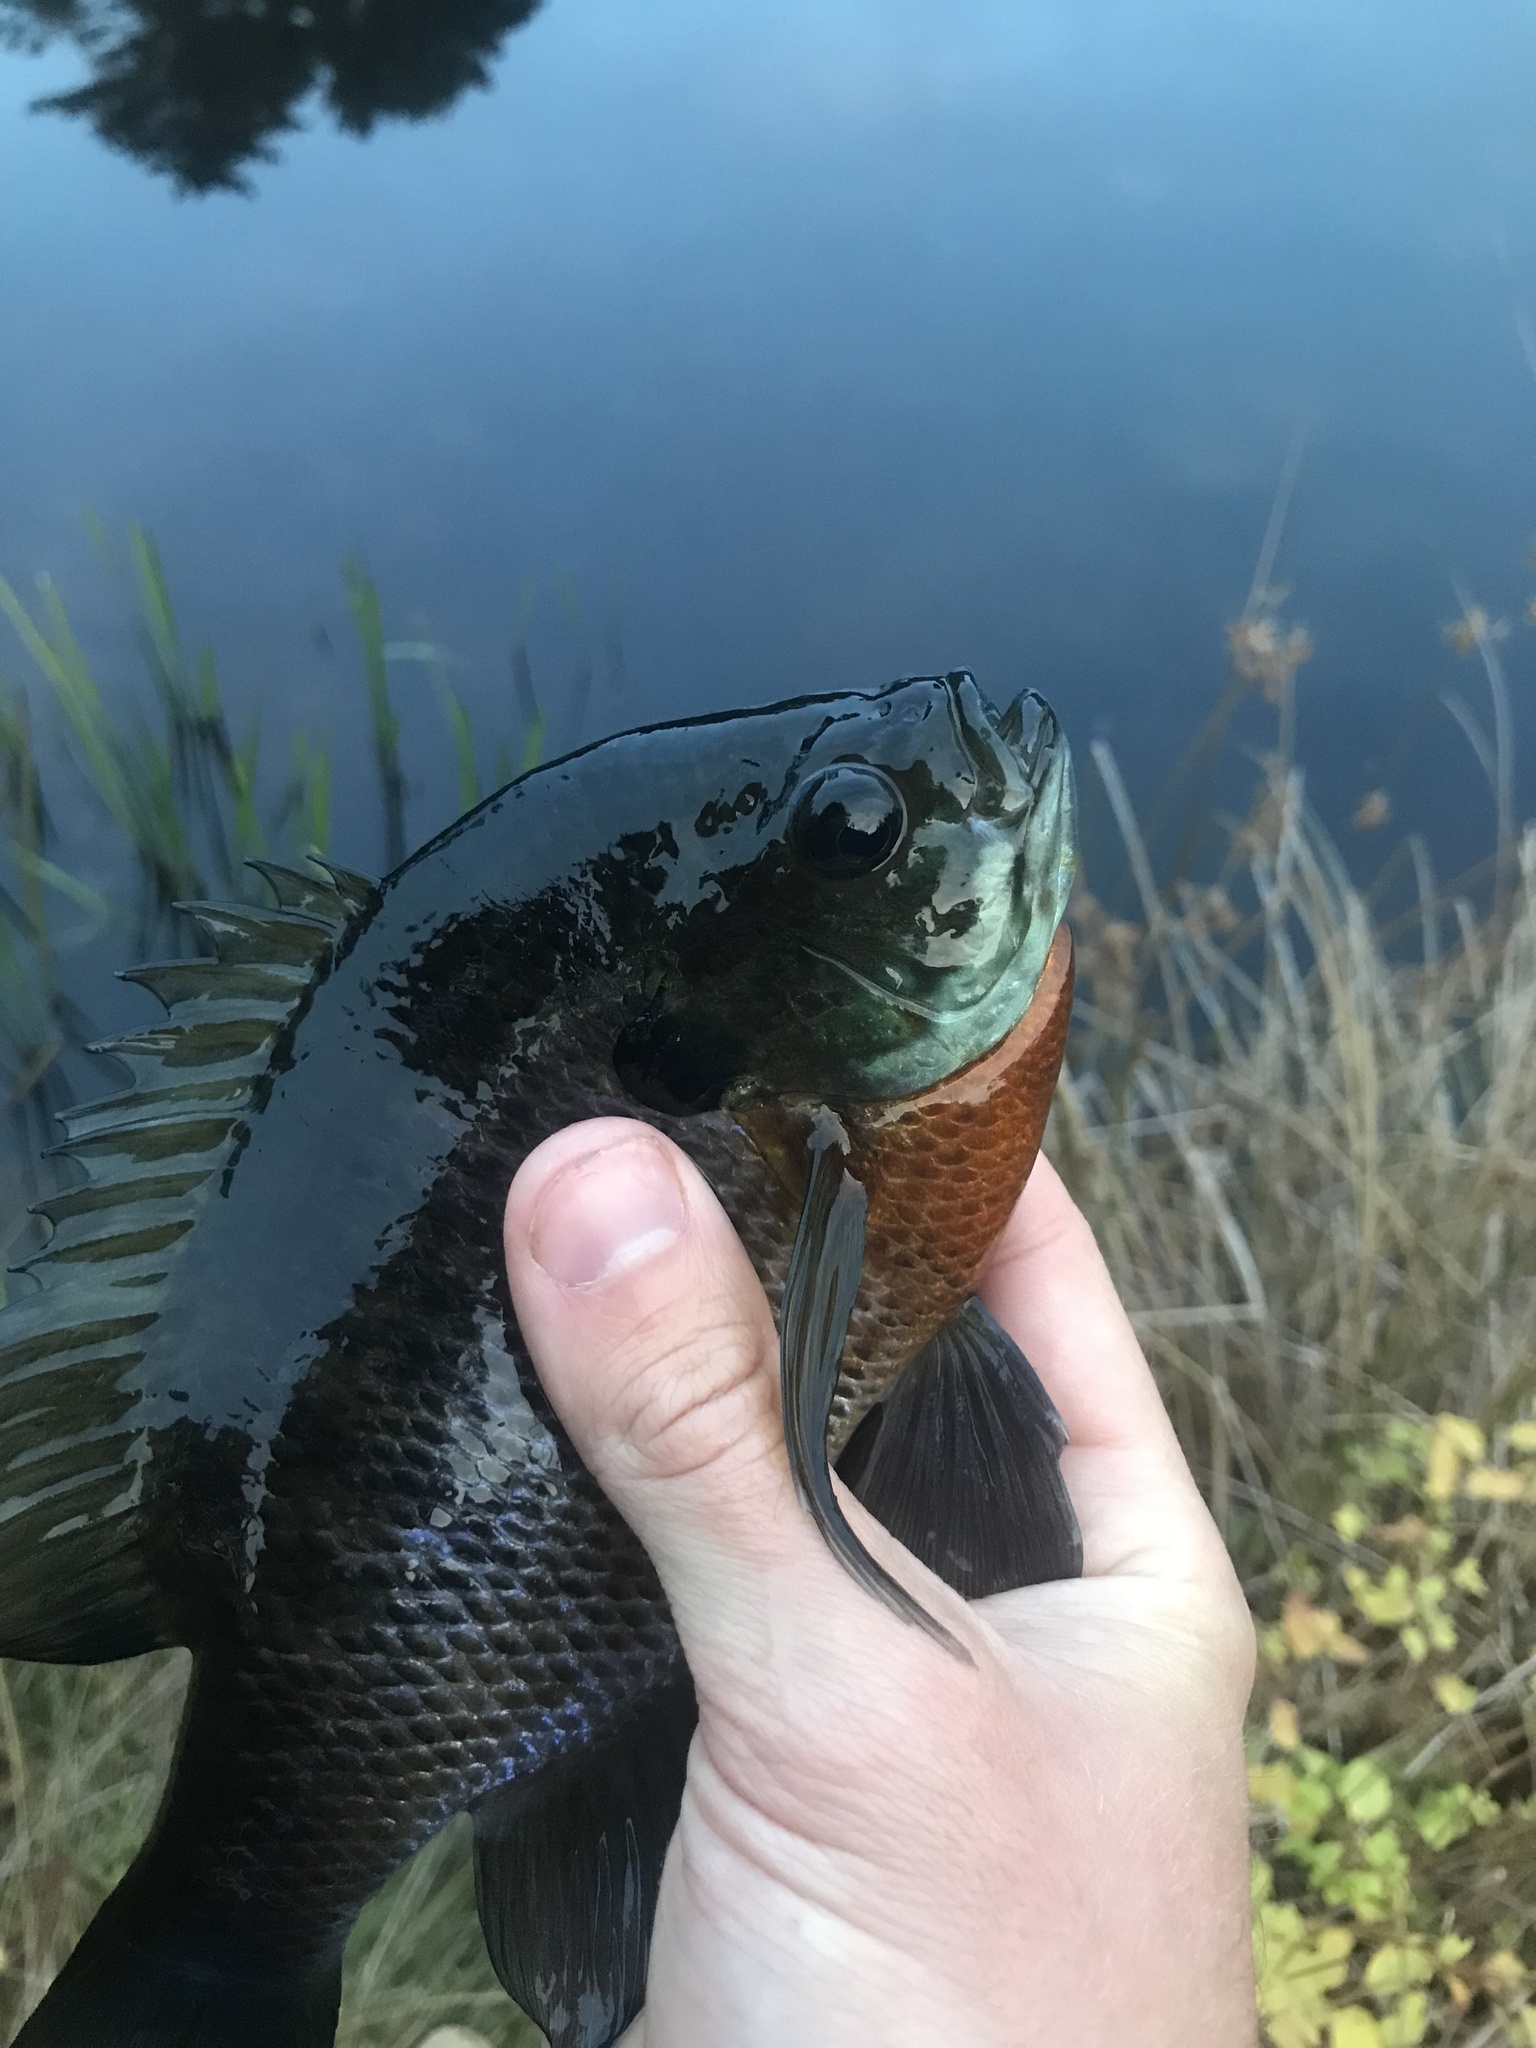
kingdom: Animalia
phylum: Chordata
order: Perciformes
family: Centrarchidae
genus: Lepomis
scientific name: Lepomis macrochirus
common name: Bluegill
